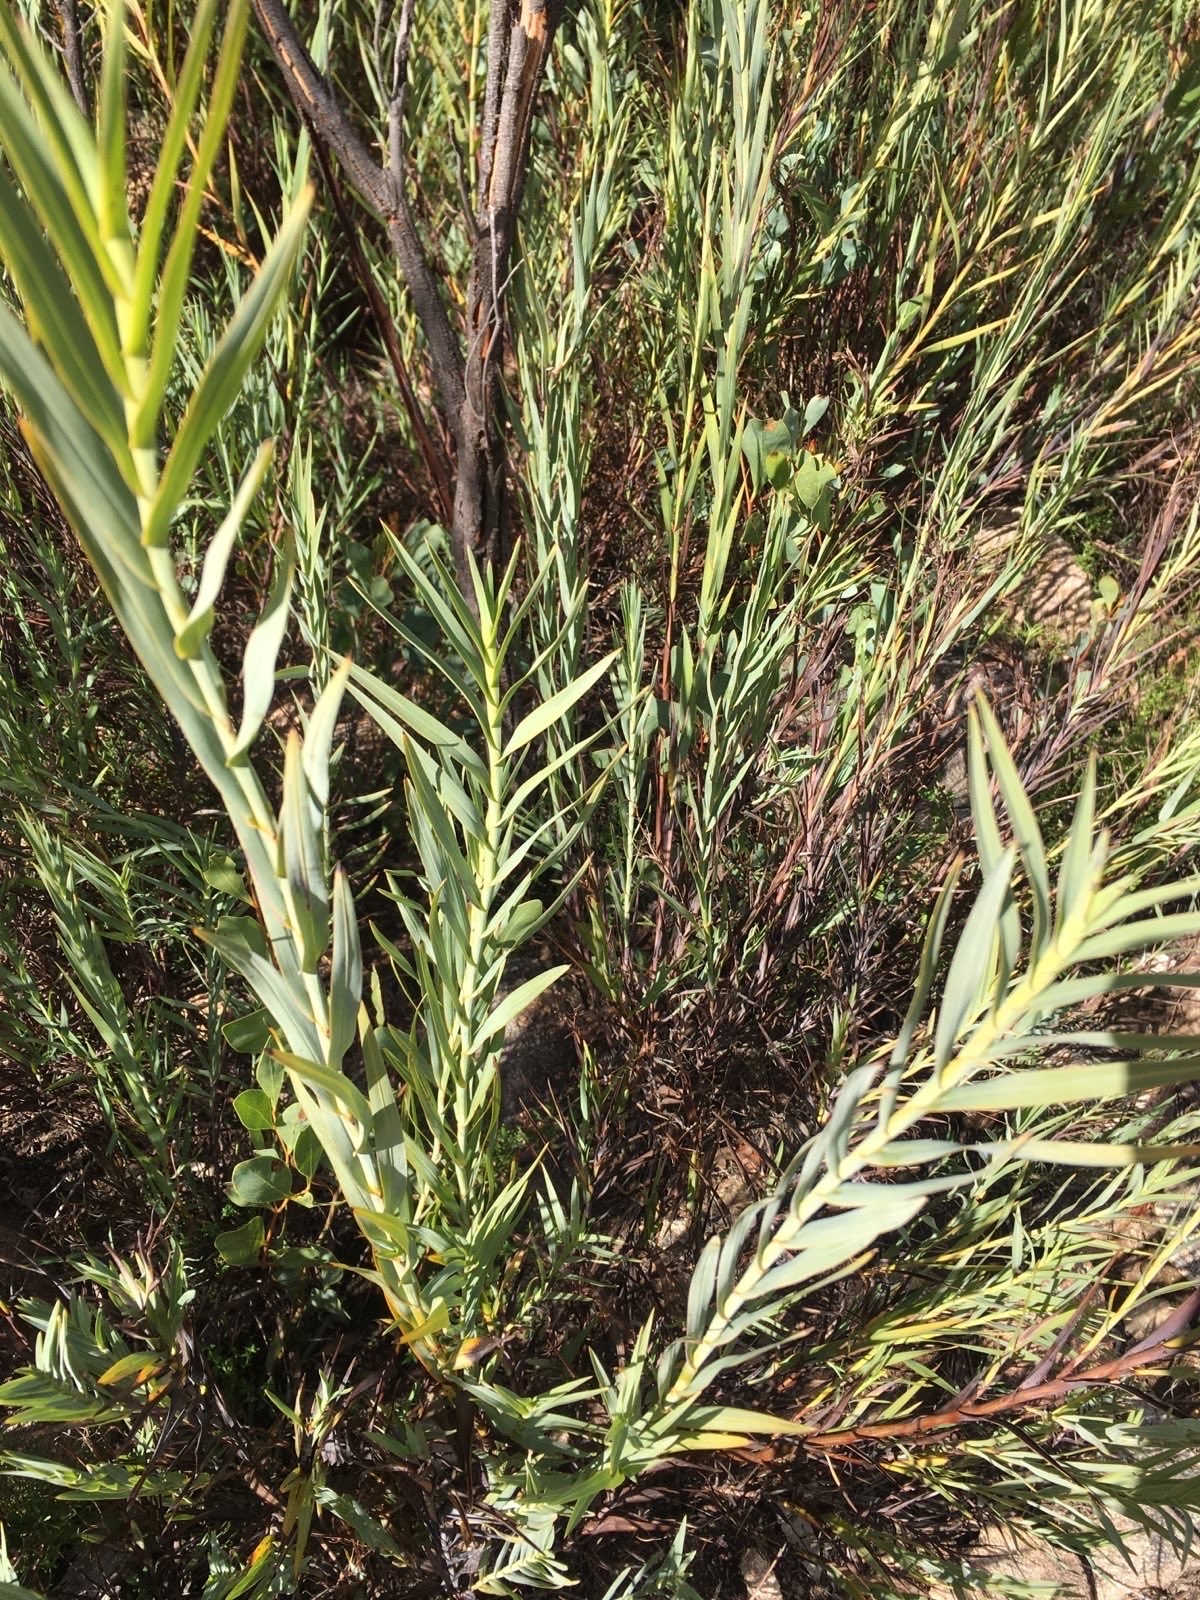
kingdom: Plantae
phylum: Tracheophyta
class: Liliopsida
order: Asparagales
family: Asphodelaceae
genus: Stypandra
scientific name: Stypandra glauca
